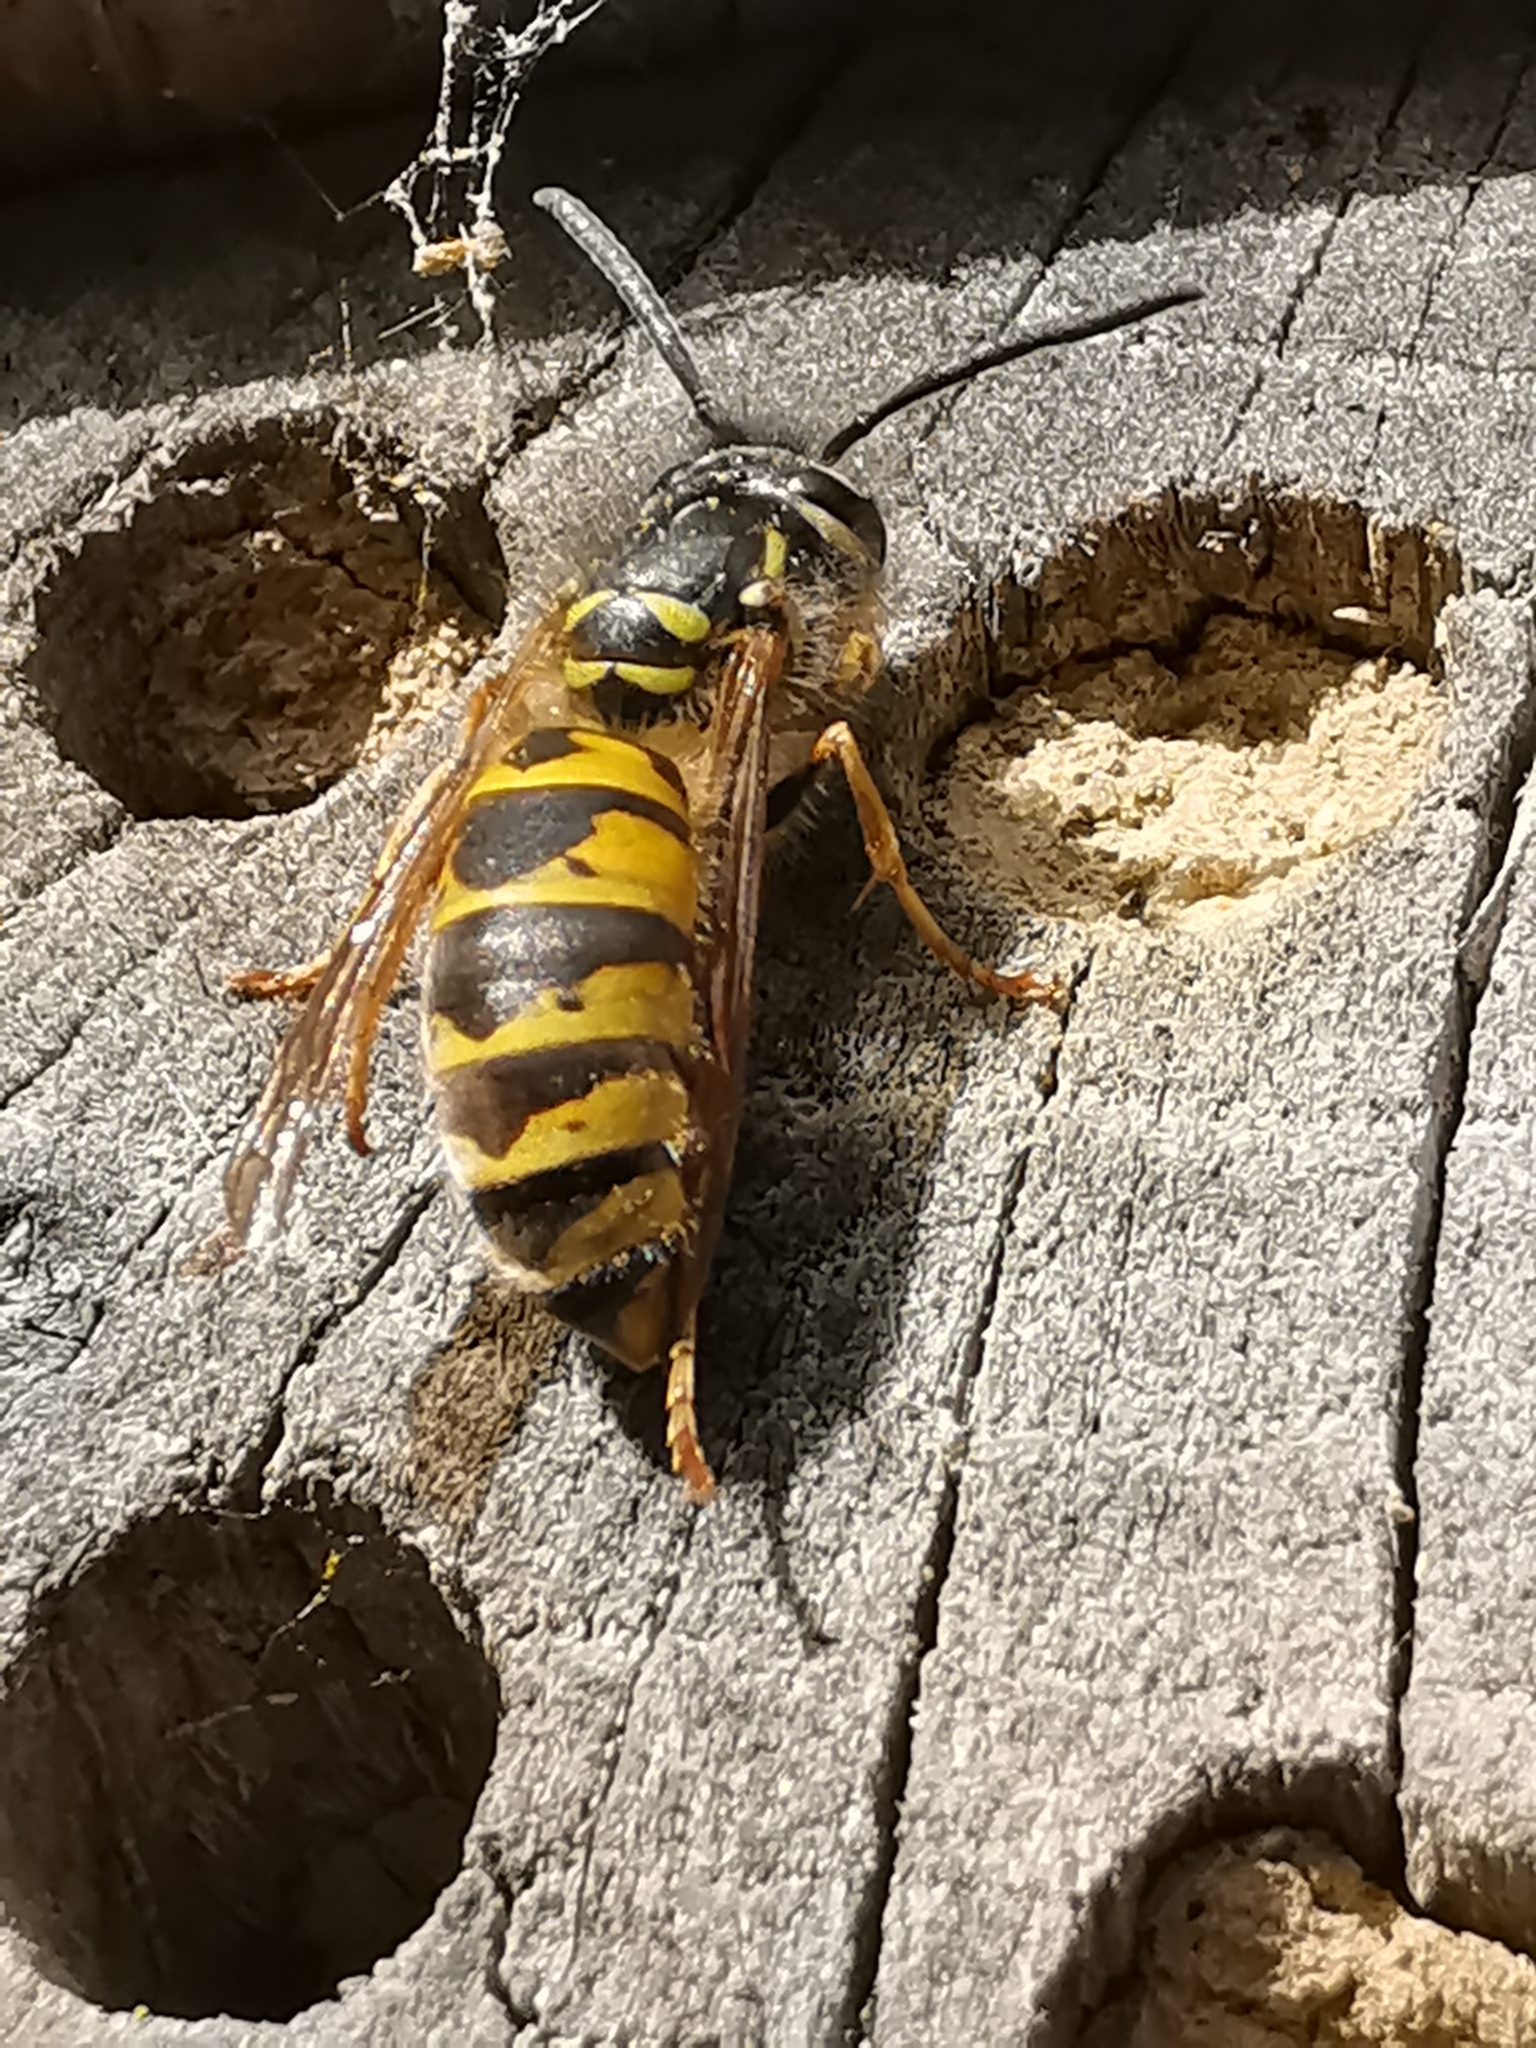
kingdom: Animalia
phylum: Arthropoda
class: Insecta
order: Hymenoptera
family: Vespidae
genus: Vespula
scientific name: Vespula vulgaris
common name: Common wasp
